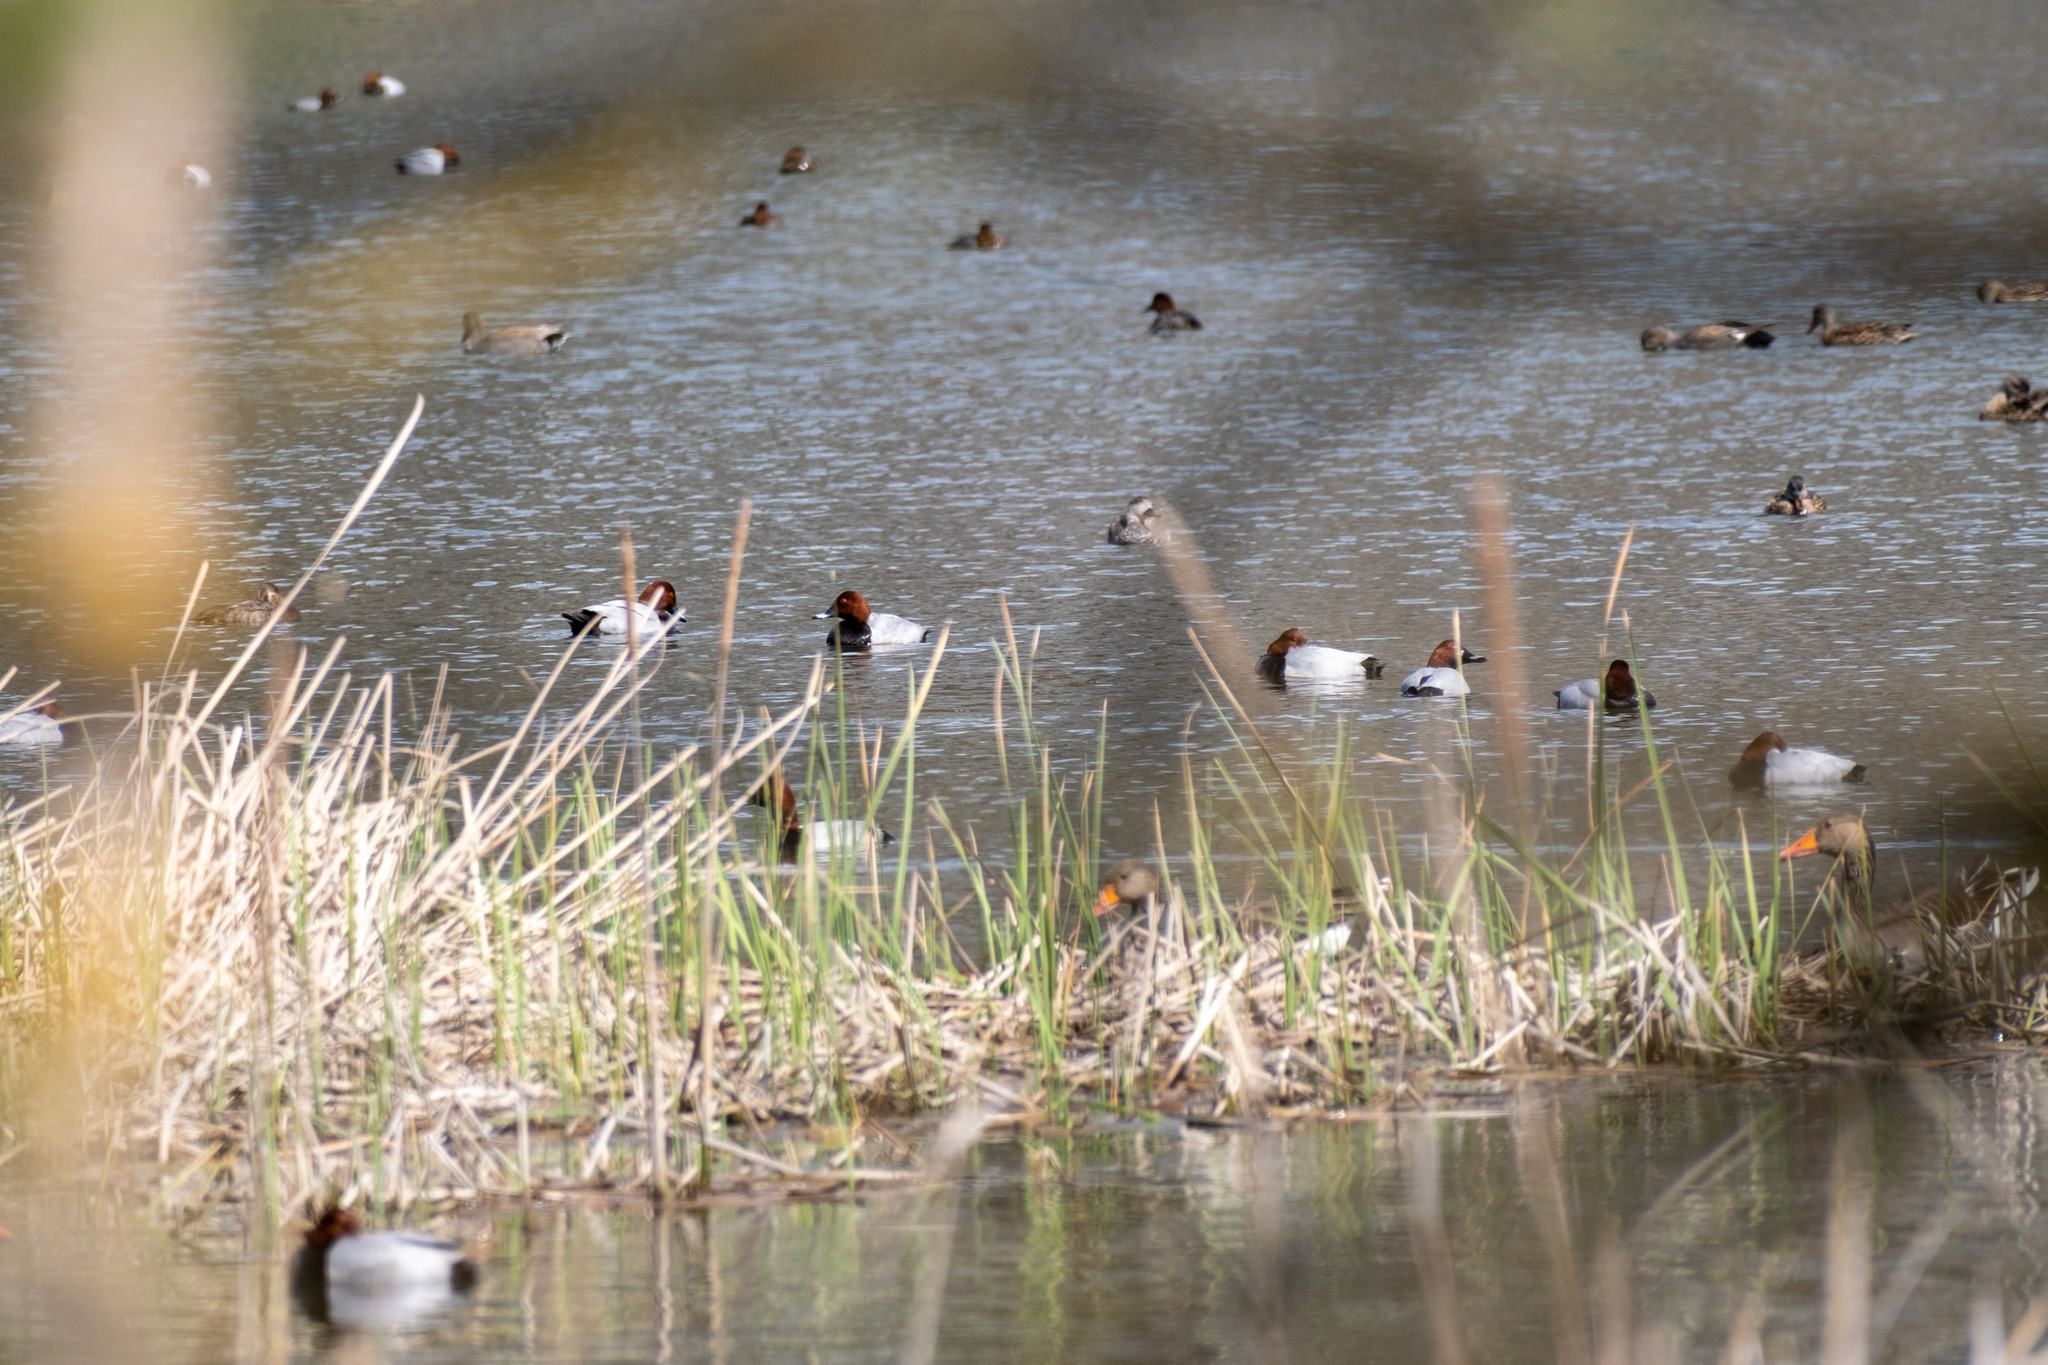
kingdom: Animalia
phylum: Chordata
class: Aves
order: Anseriformes
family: Anatidae
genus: Aythya
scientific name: Aythya ferina
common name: Common pochard
